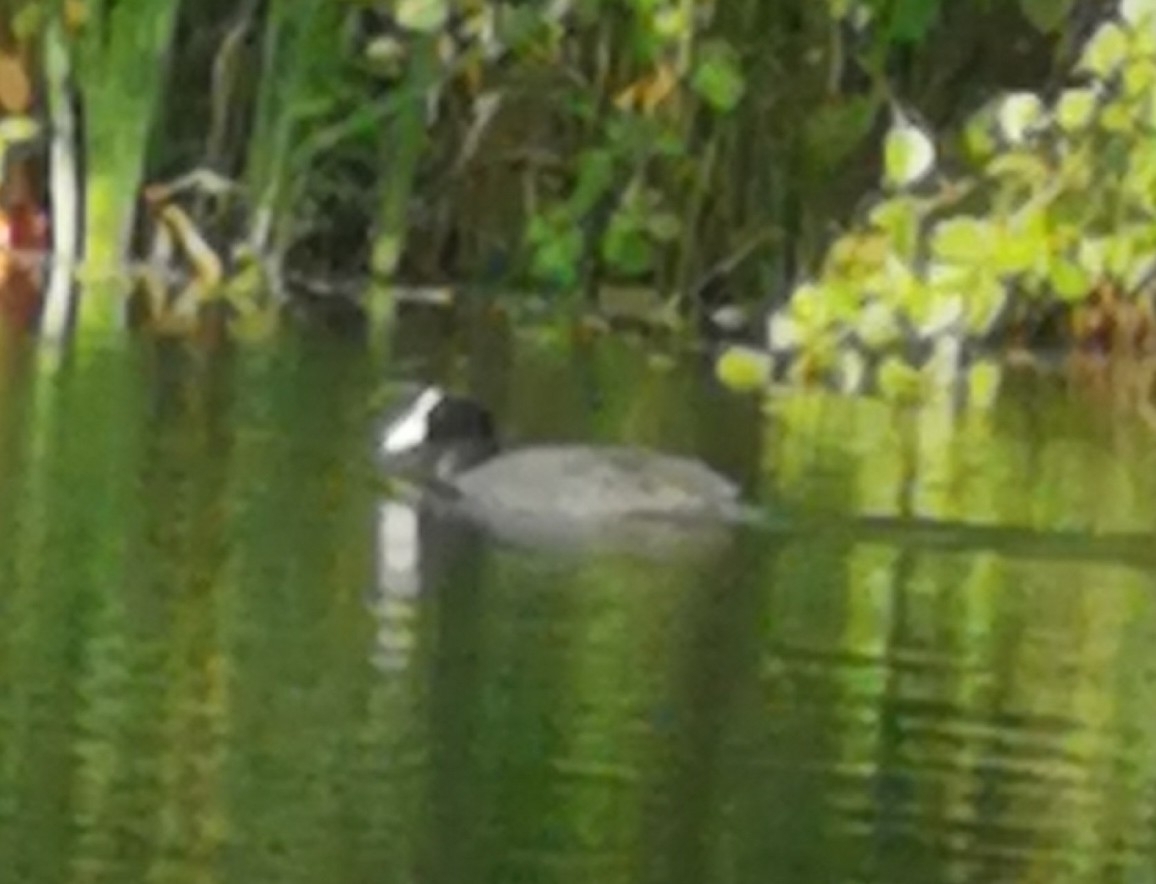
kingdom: Animalia
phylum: Chordata
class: Aves
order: Gruiformes
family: Rallidae
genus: Fulica
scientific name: Fulica atra
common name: Eurasian coot
